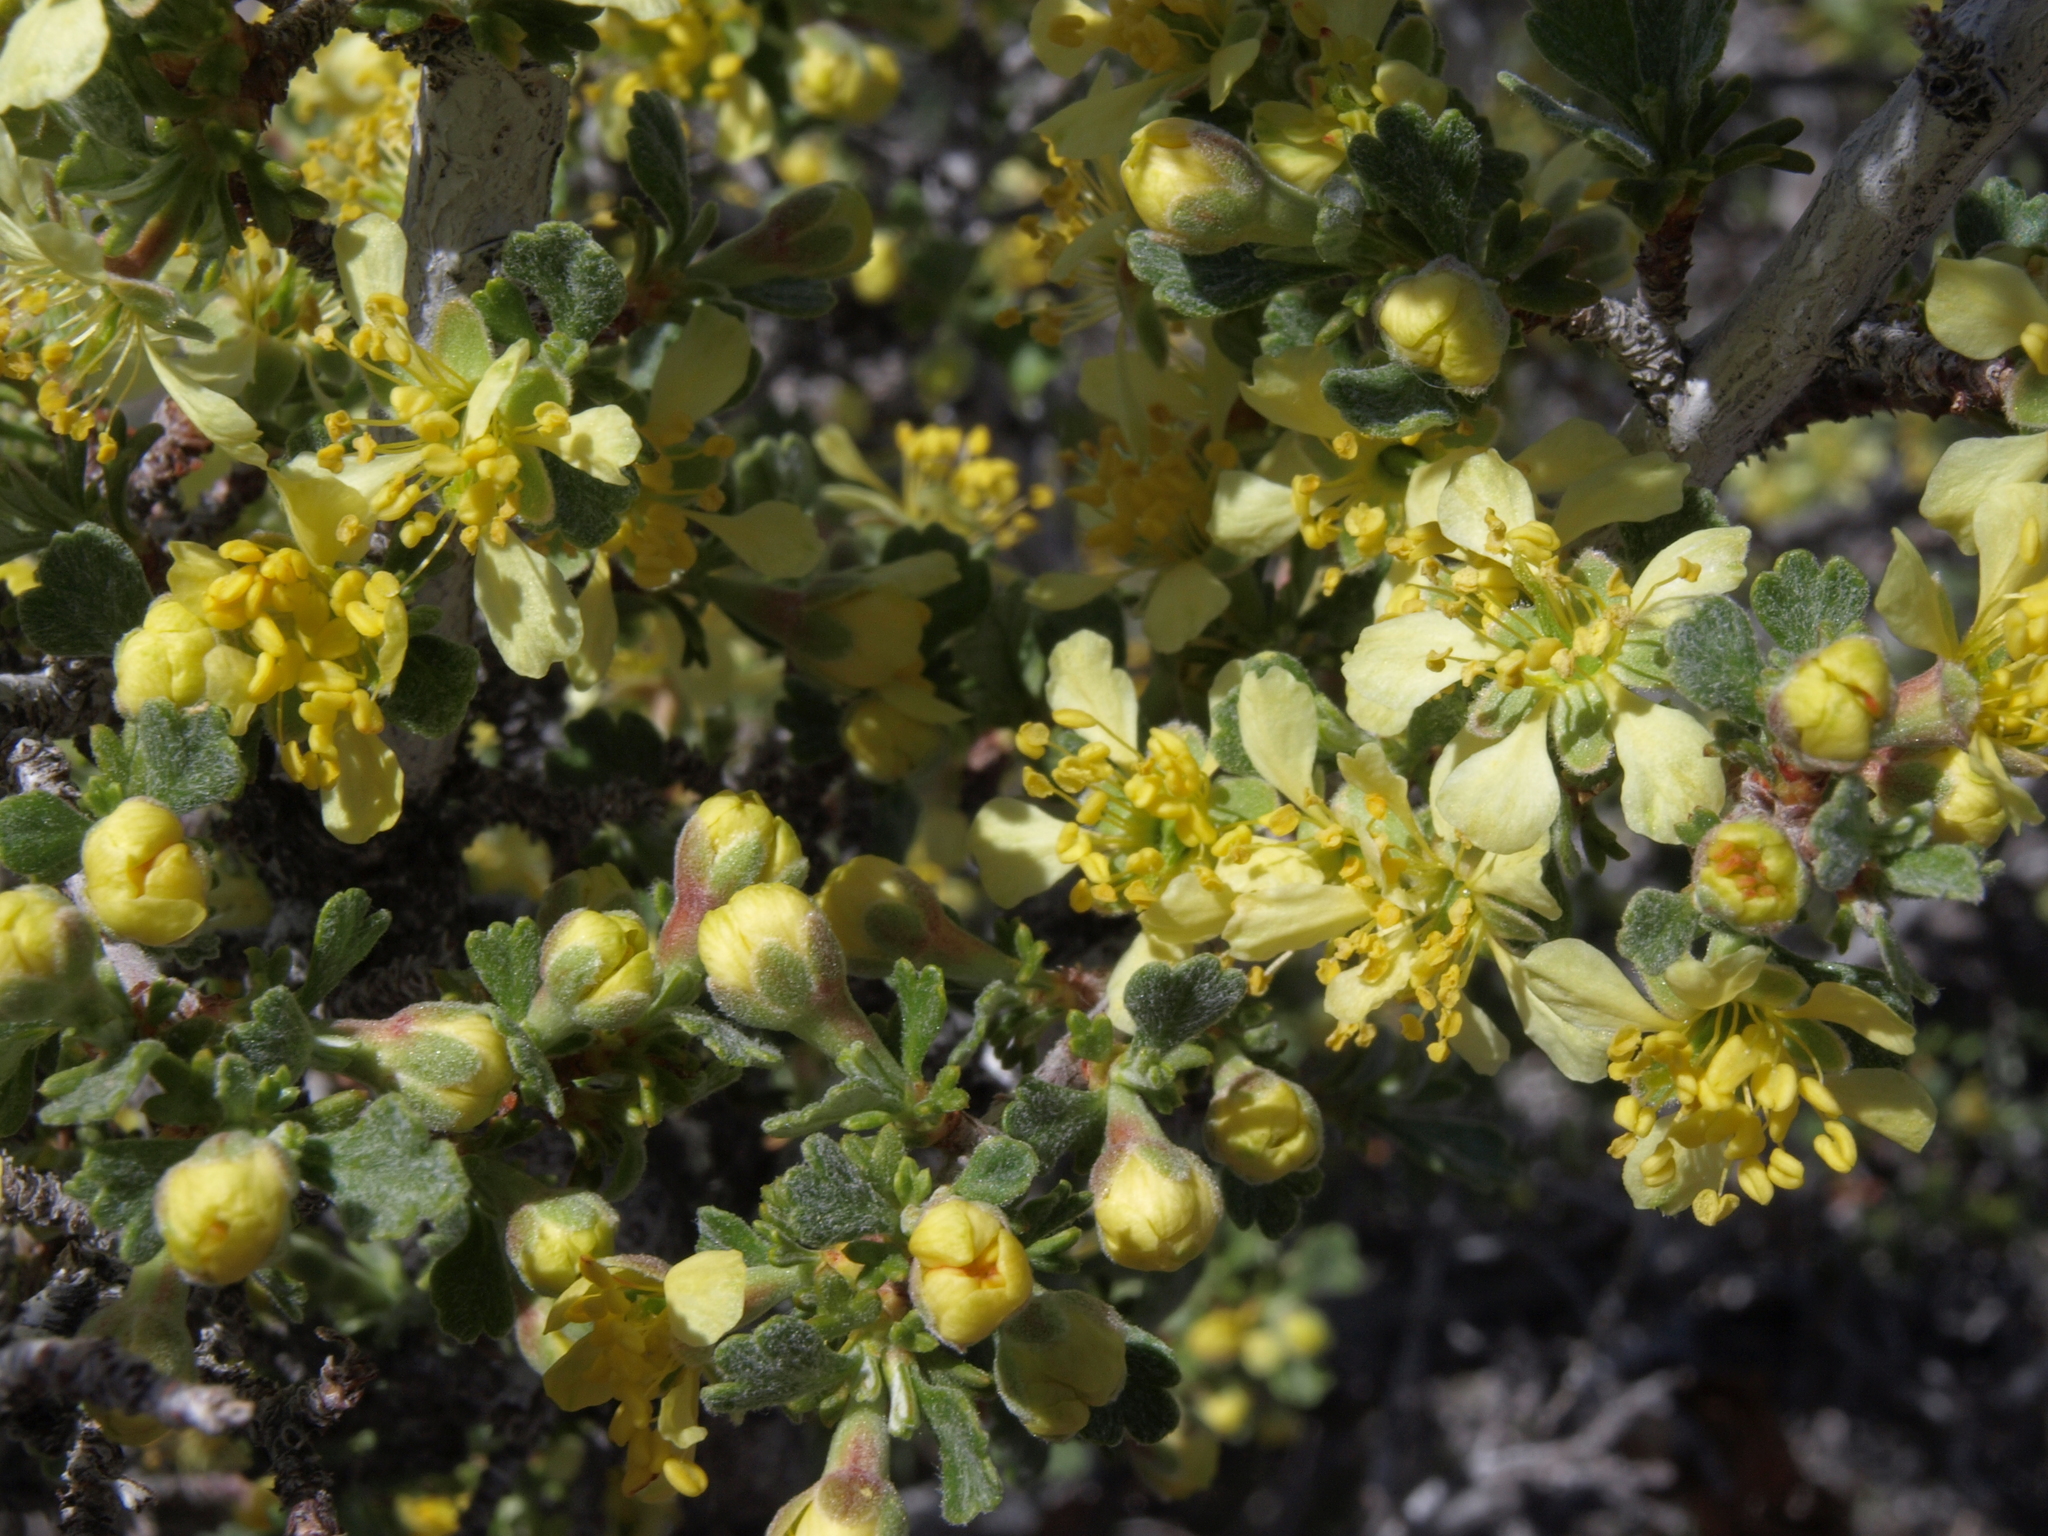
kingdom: Plantae
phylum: Tracheophyta
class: Magnoliopsida
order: Rosales
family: Rosaceae
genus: Purshia
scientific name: Purshia tridentata
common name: Antelope bitterbrush
